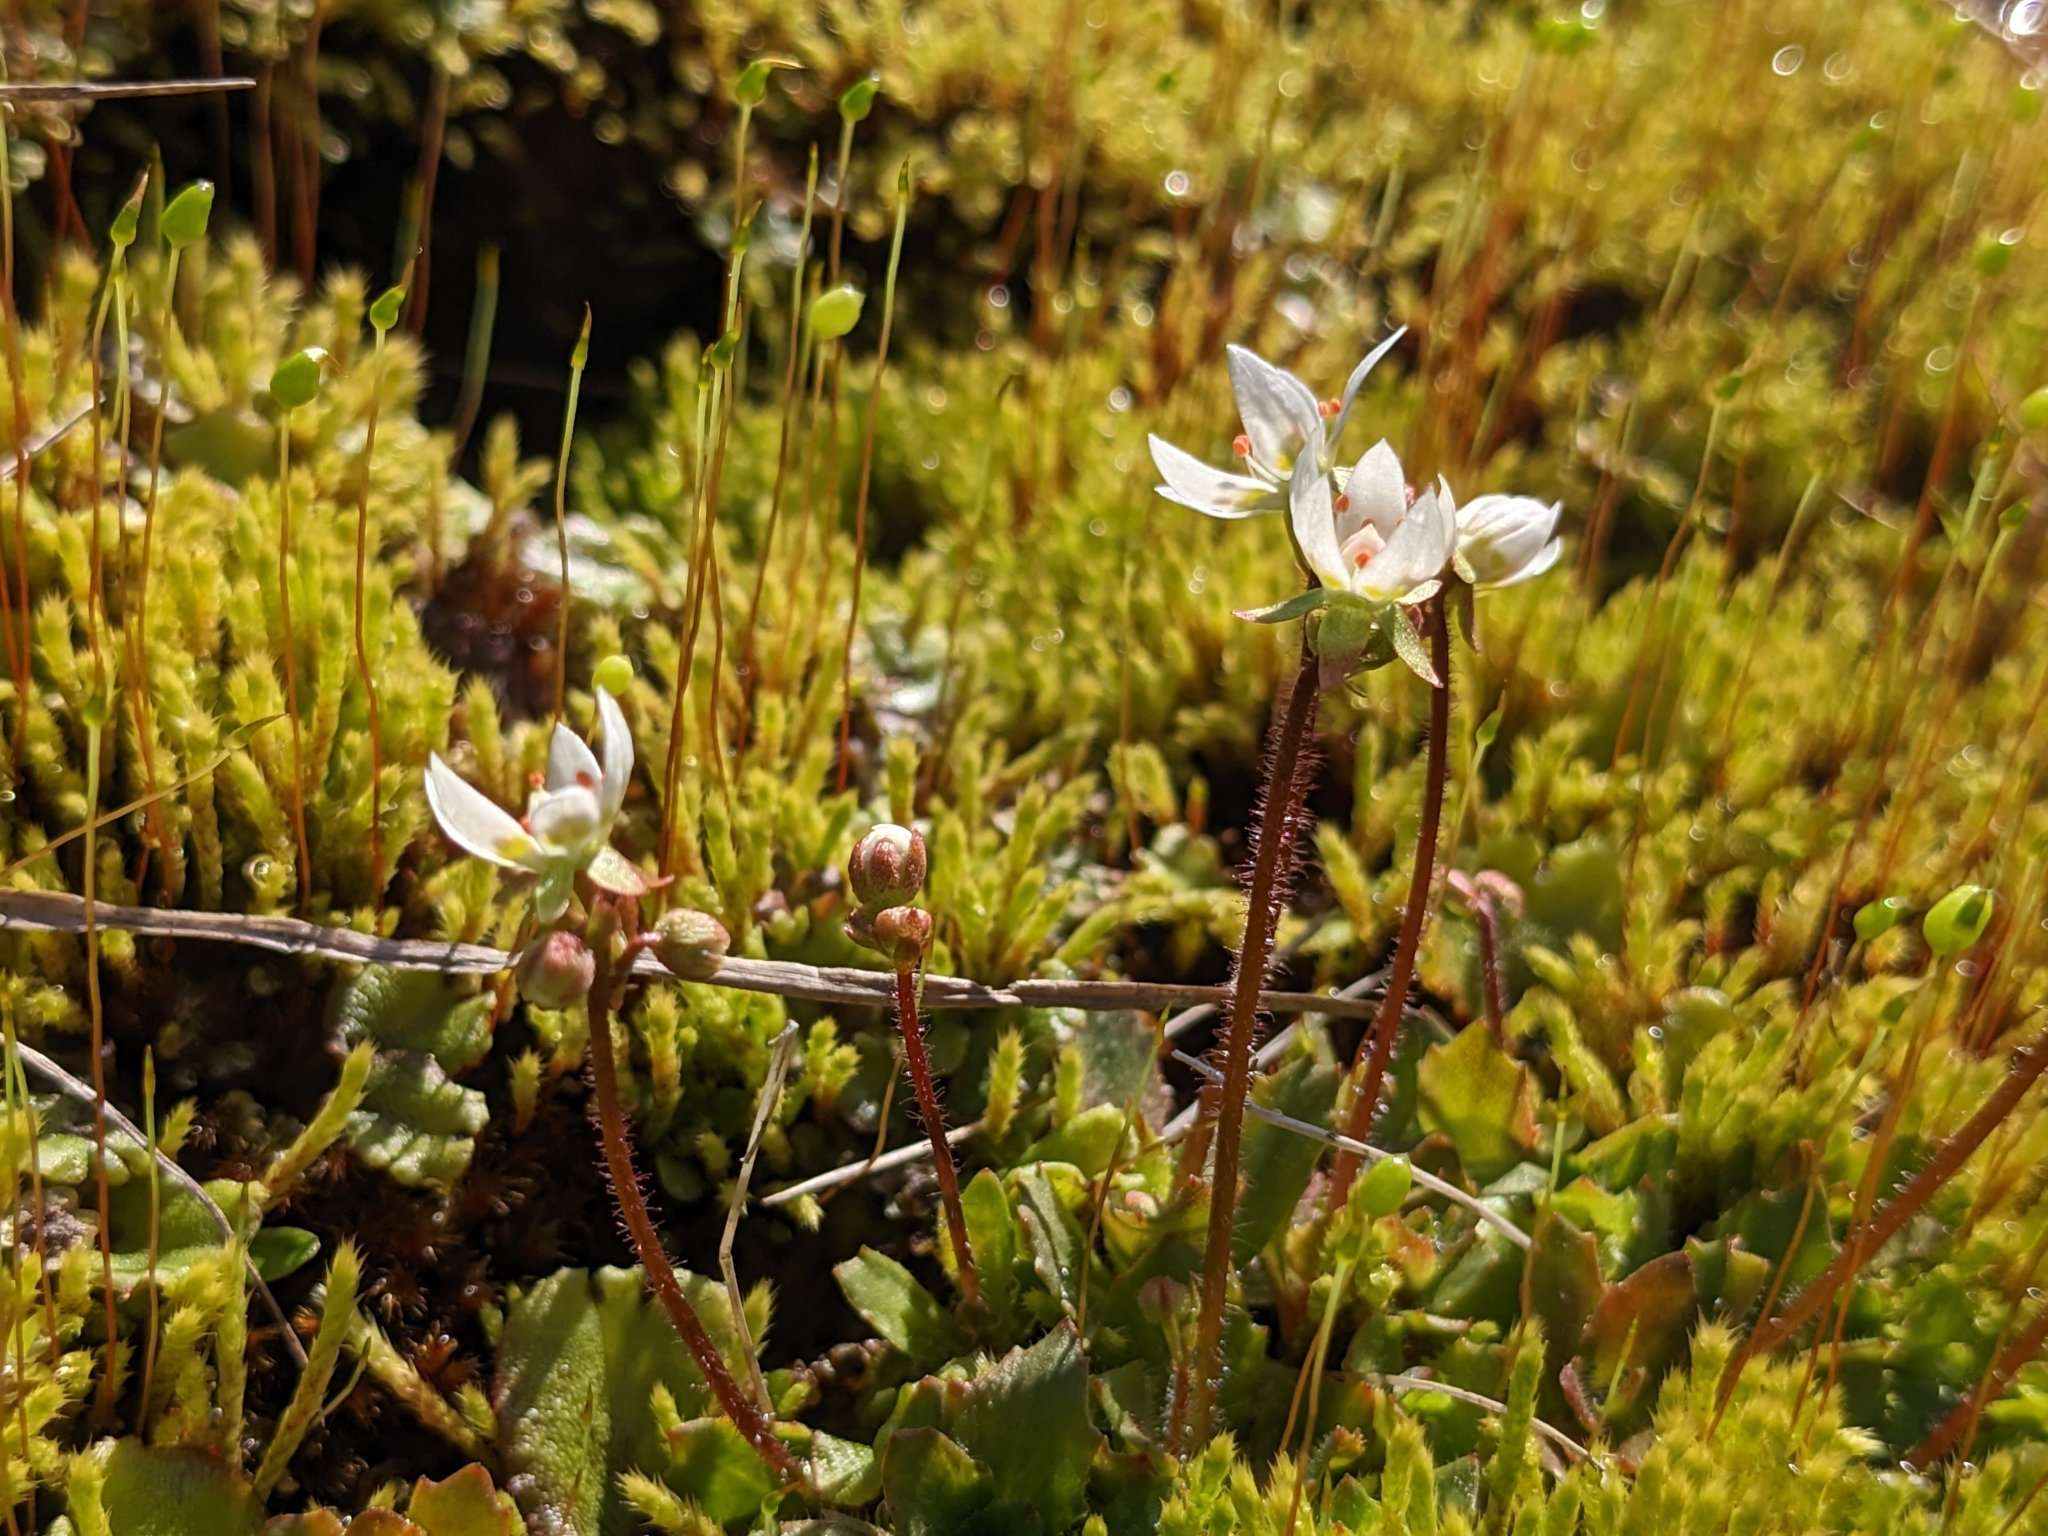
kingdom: Plantae
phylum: Tracheophyta
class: Magnoliopsida
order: Saxifragales
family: Saxifragaceae
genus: Micranthes
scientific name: Micranthes stellaris
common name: Starry saxifrage
